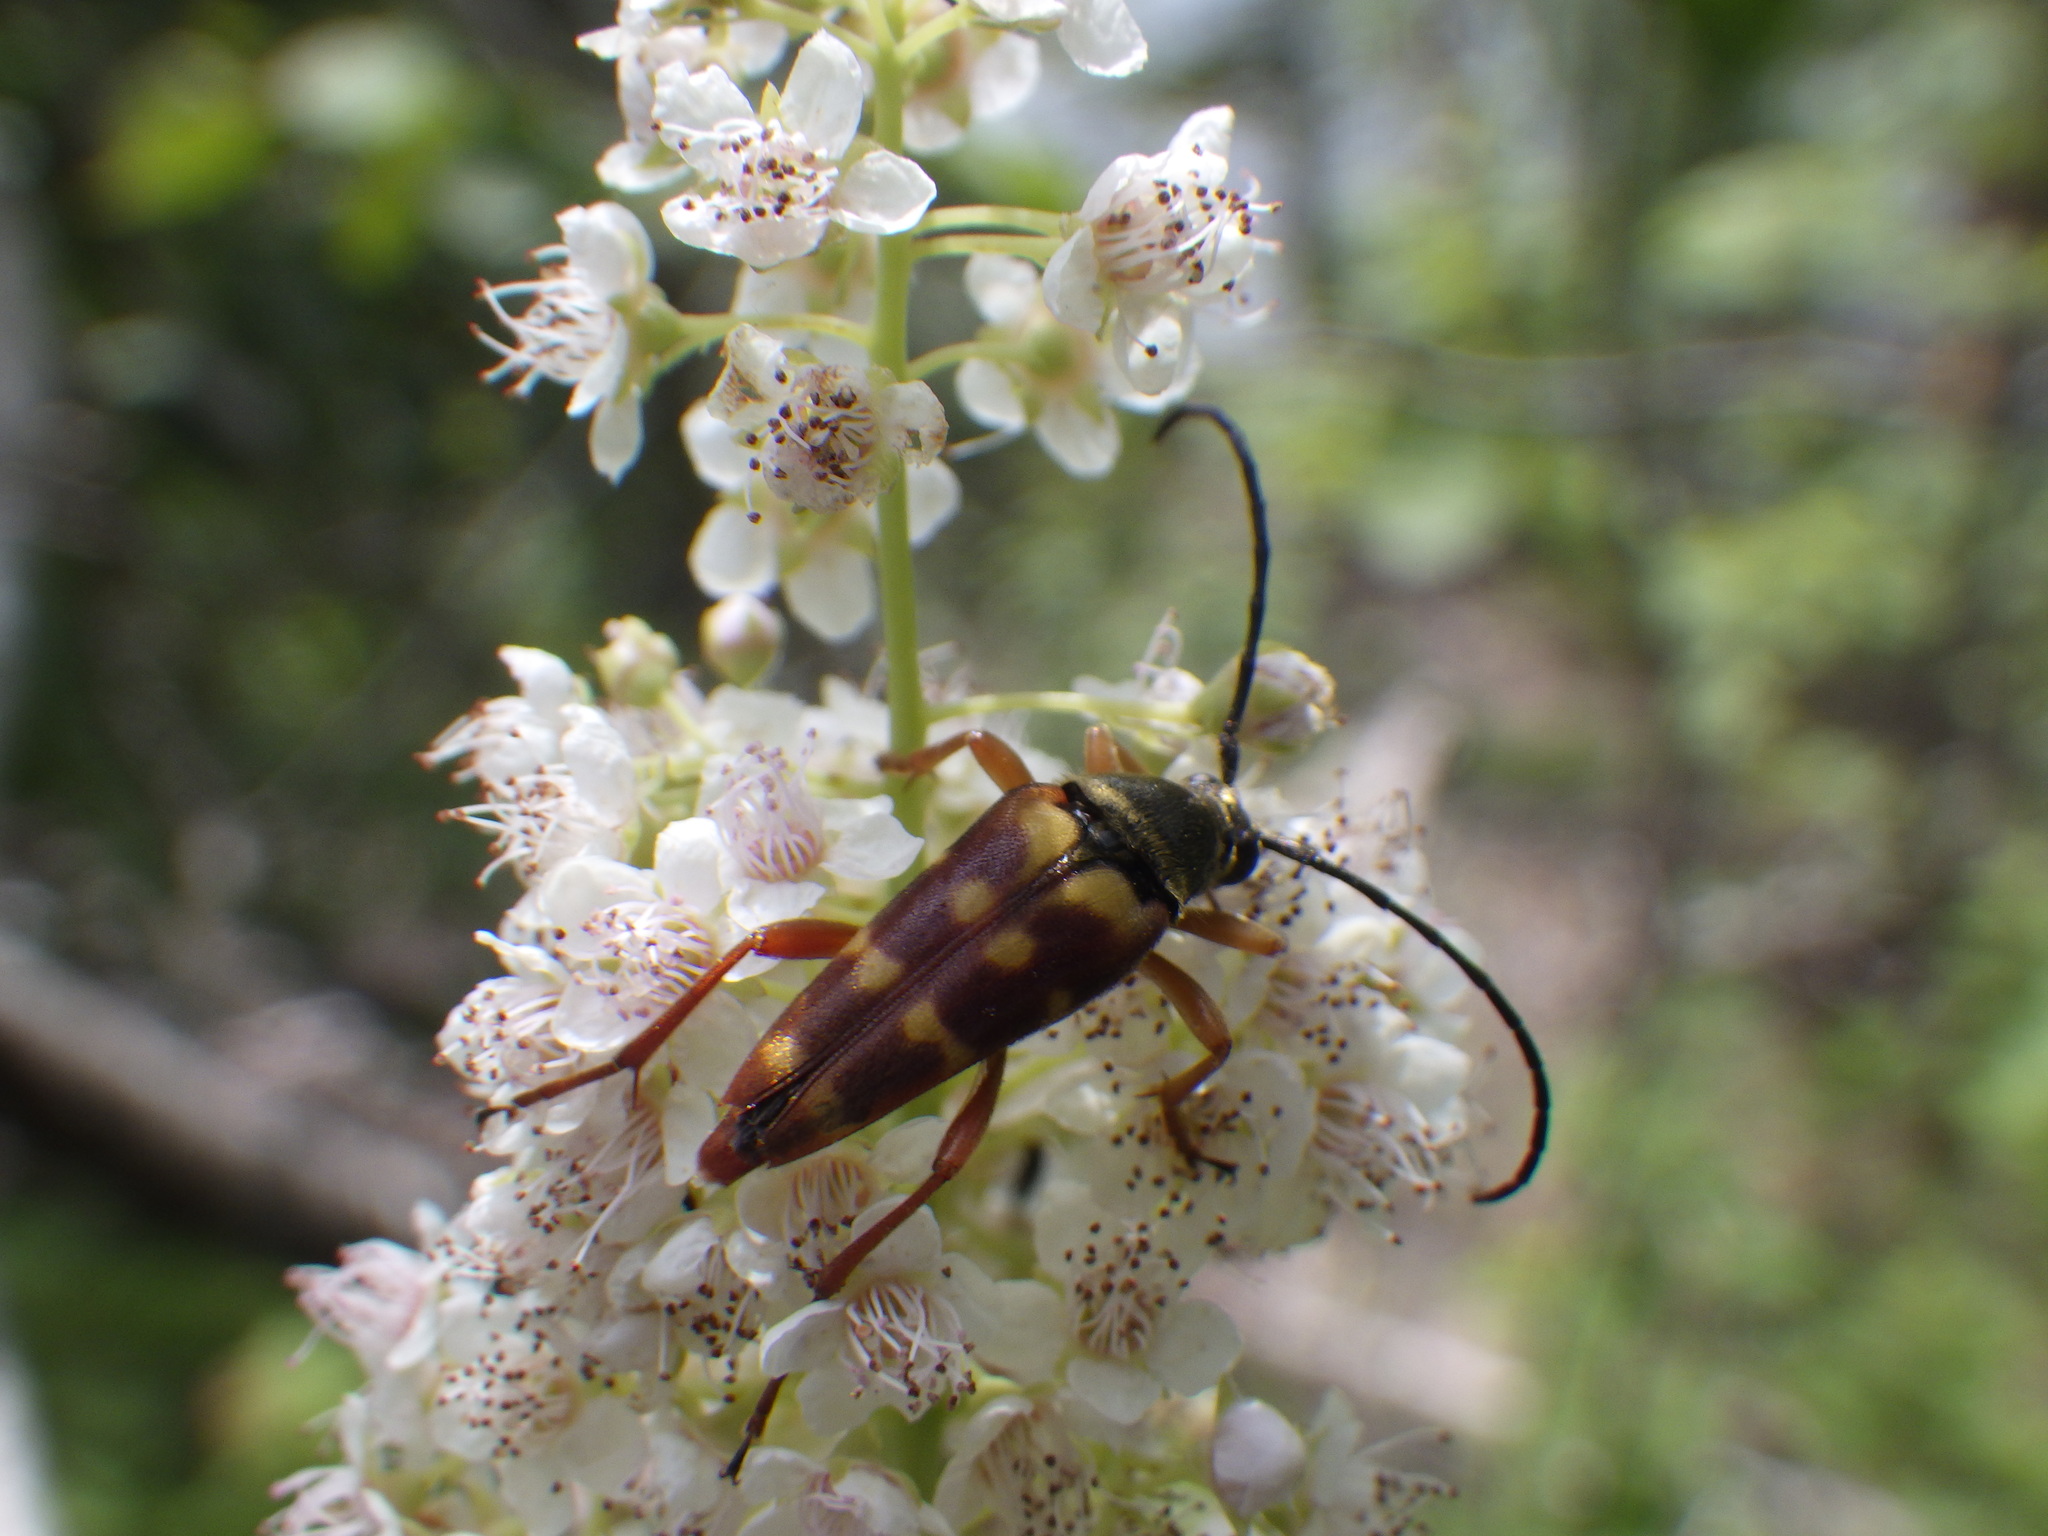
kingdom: Animalia
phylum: Arthropoda
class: Insecta
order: Coleoptera
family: Cerambycidae
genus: Typocerus
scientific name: Typocerus velutinus
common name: Banded longhorn beetle
